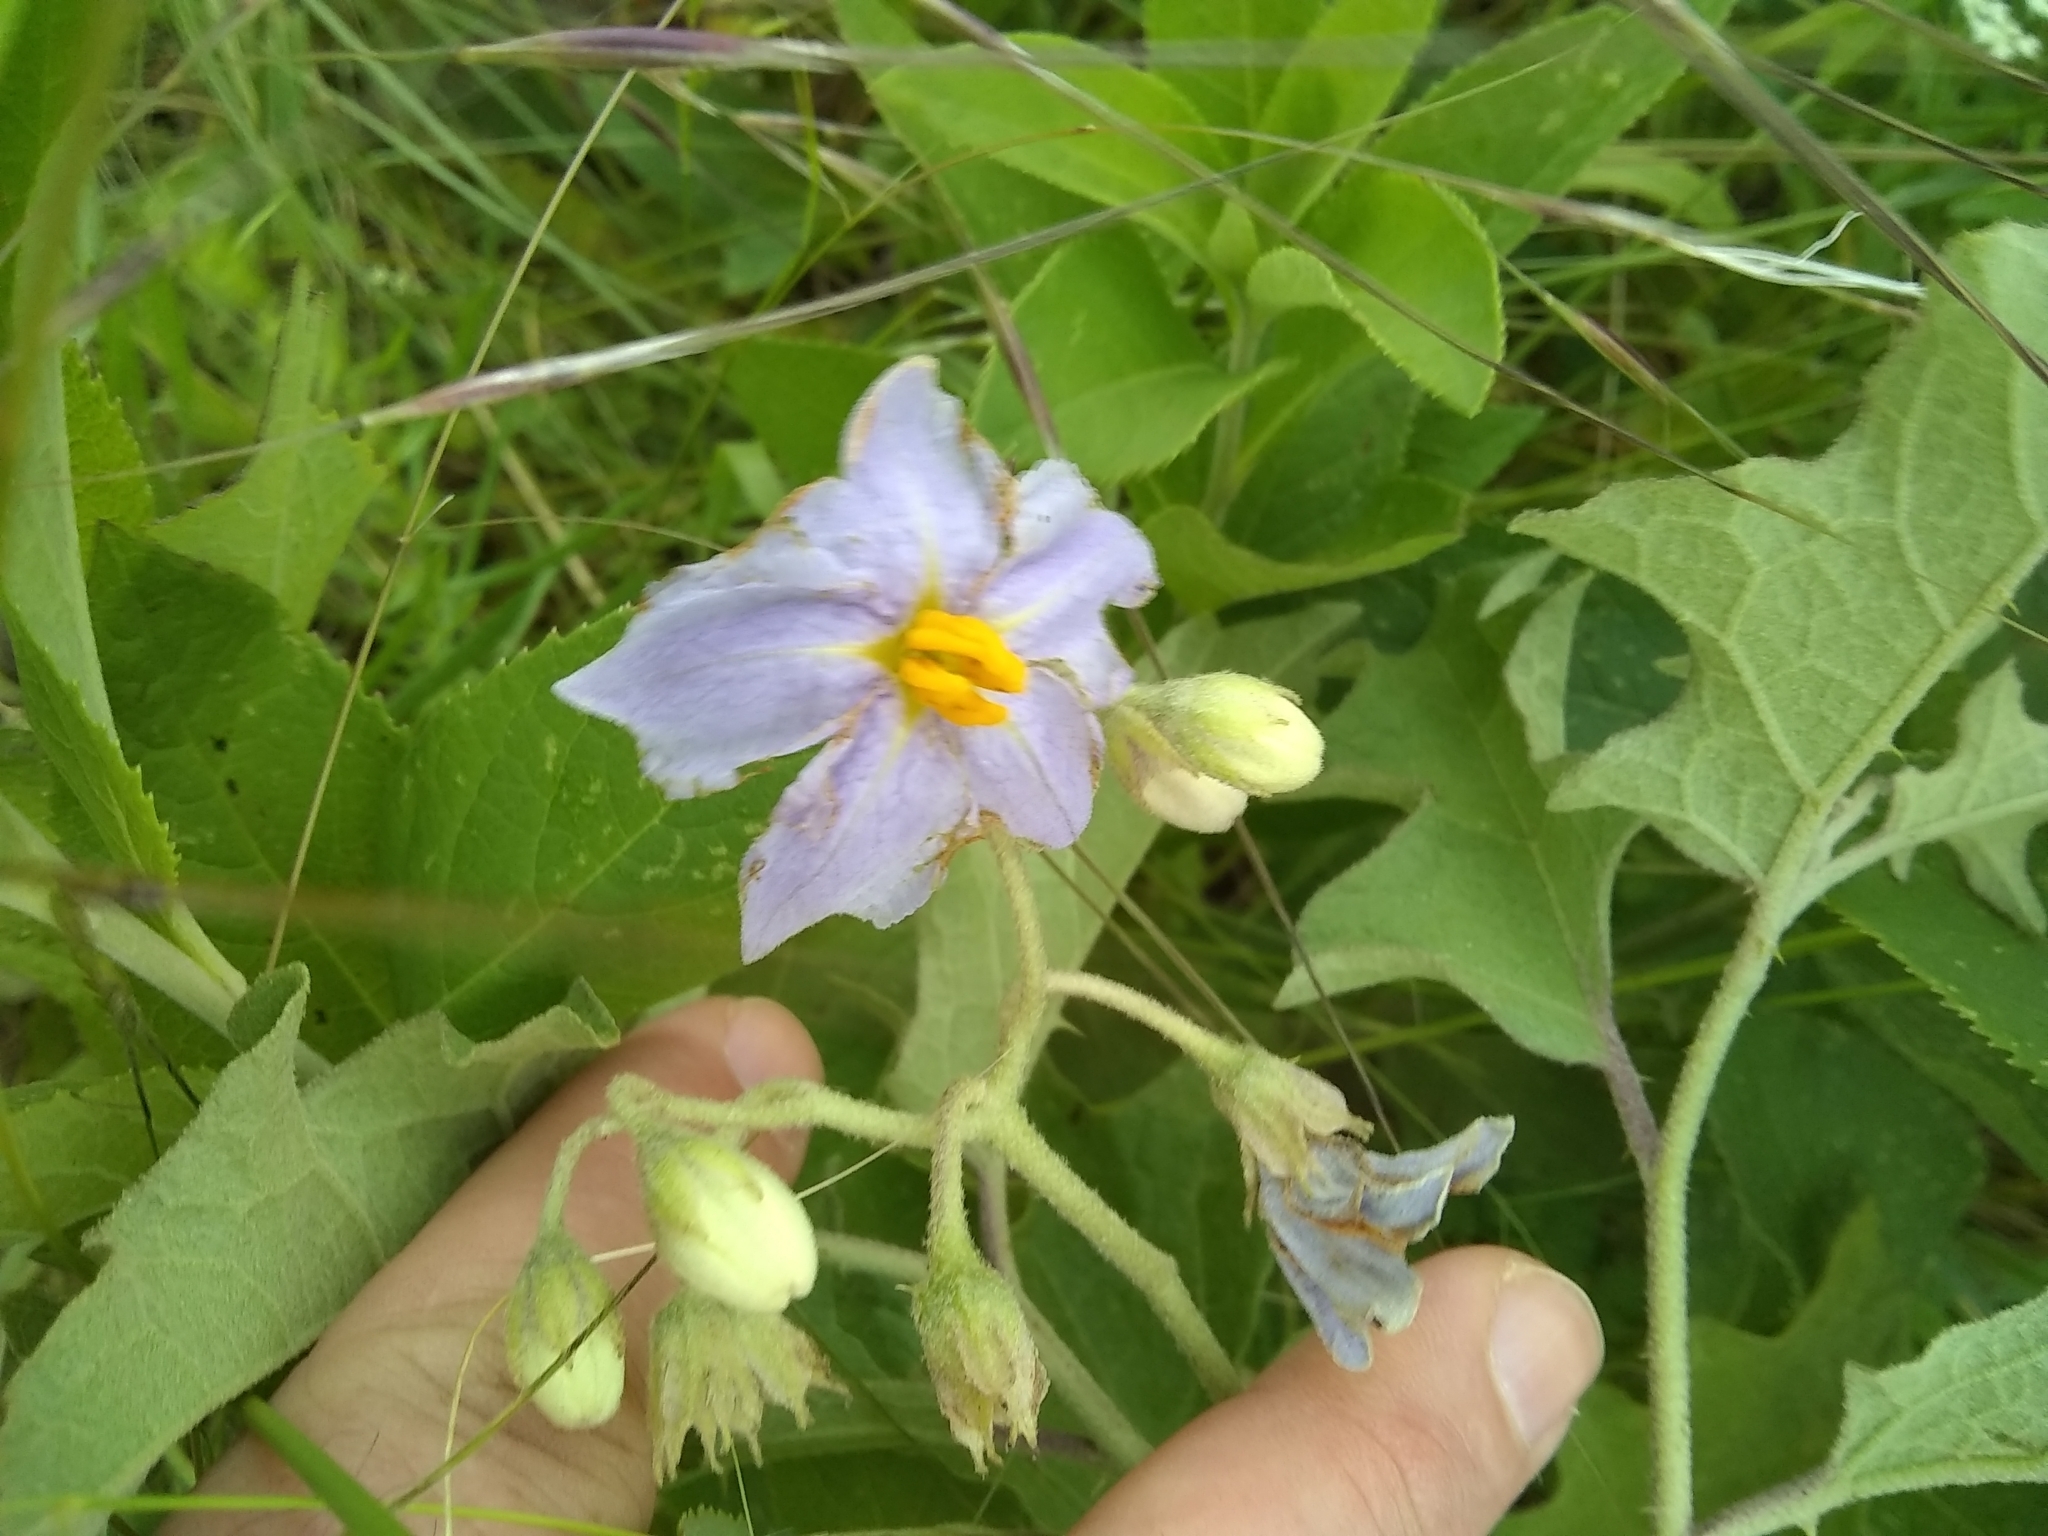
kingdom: Plantae
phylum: Tracheophyta
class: Magnoliopsida
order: Solanales
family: Solanaceae
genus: Solanum
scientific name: Solanum dimidiatum
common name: Carolina horse-nettle
